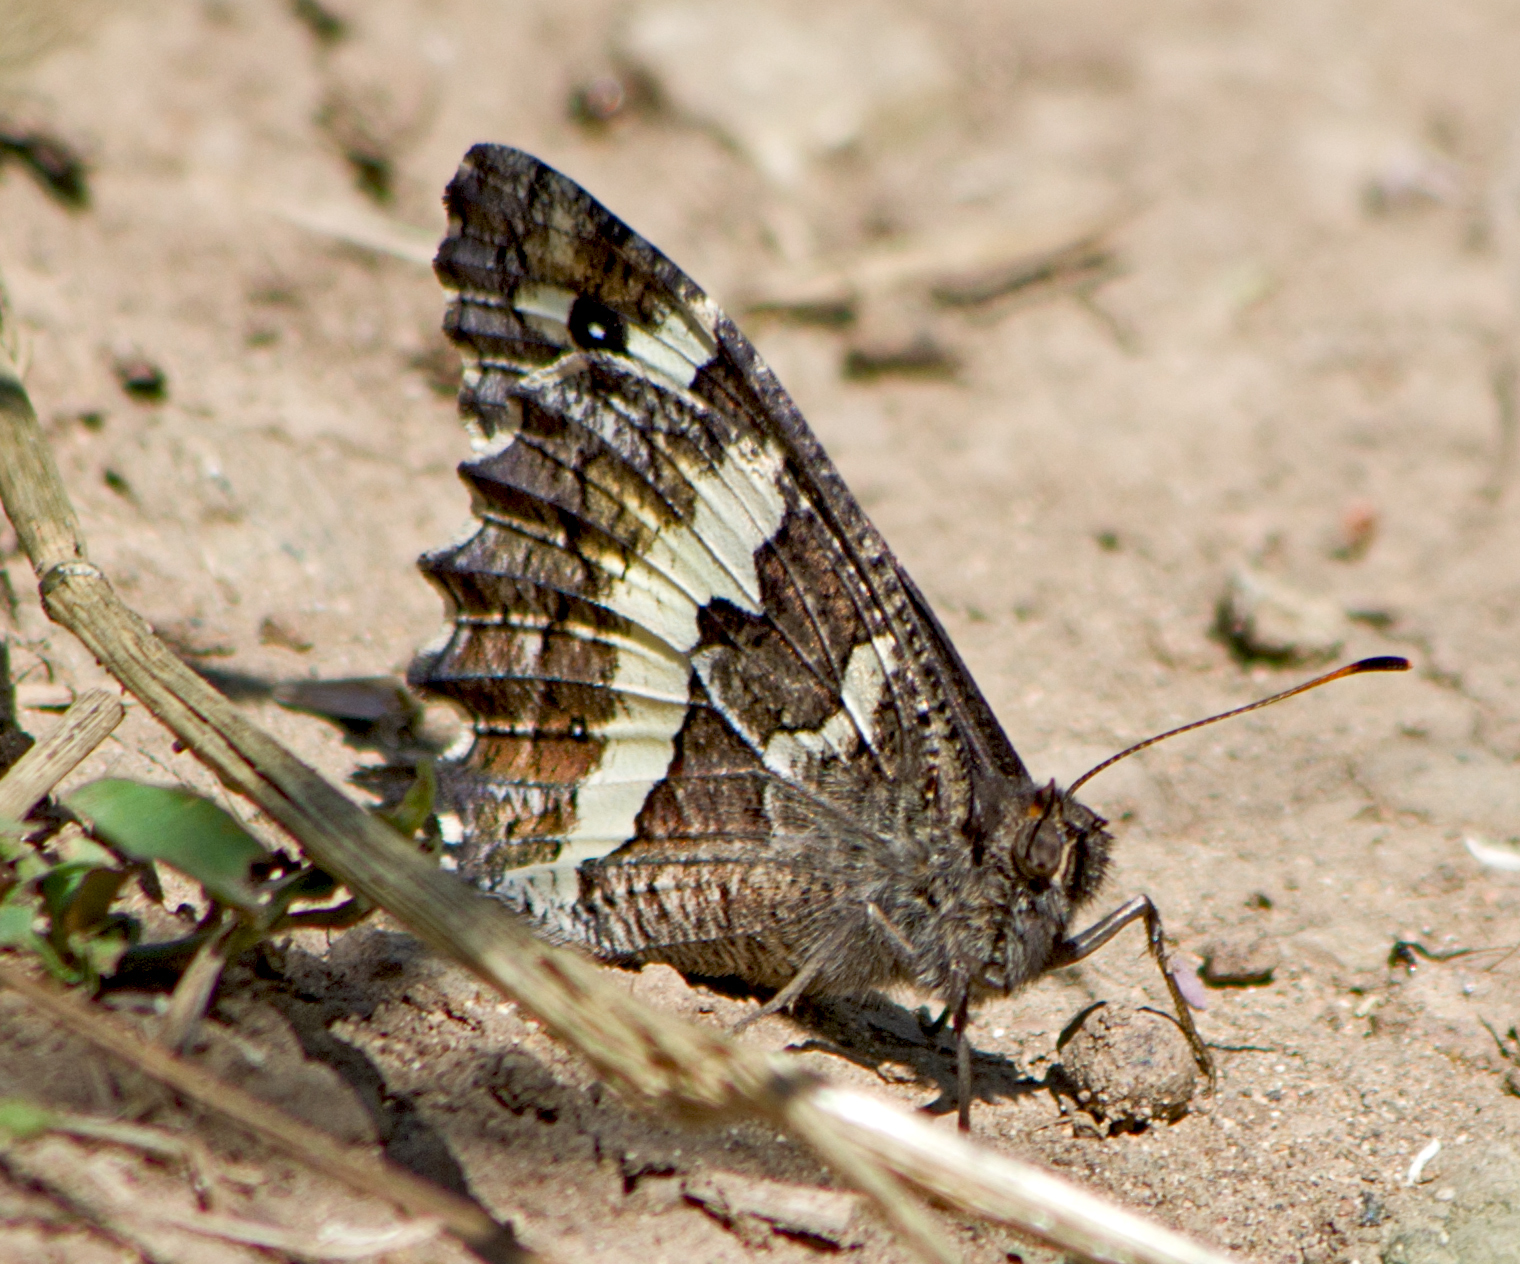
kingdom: Animalia
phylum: Arthropoda
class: Insecta
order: Lepidoptera
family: Lycaenidae
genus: Loweia
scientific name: Loweia tityrus
